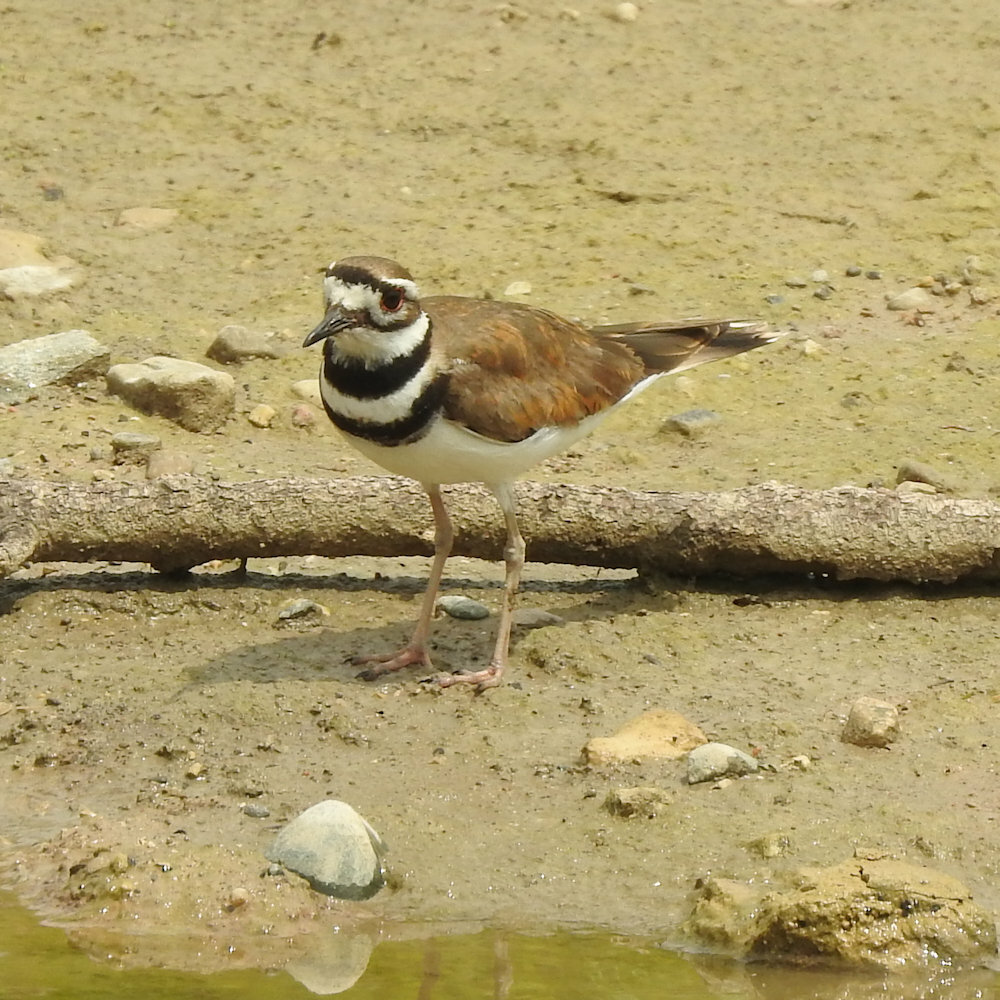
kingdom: Animalia
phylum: Chordata
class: Aves
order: Charadriiformes
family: Charadriidae
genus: Charadrius
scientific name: Charadrius vociferus
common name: Killdeer
